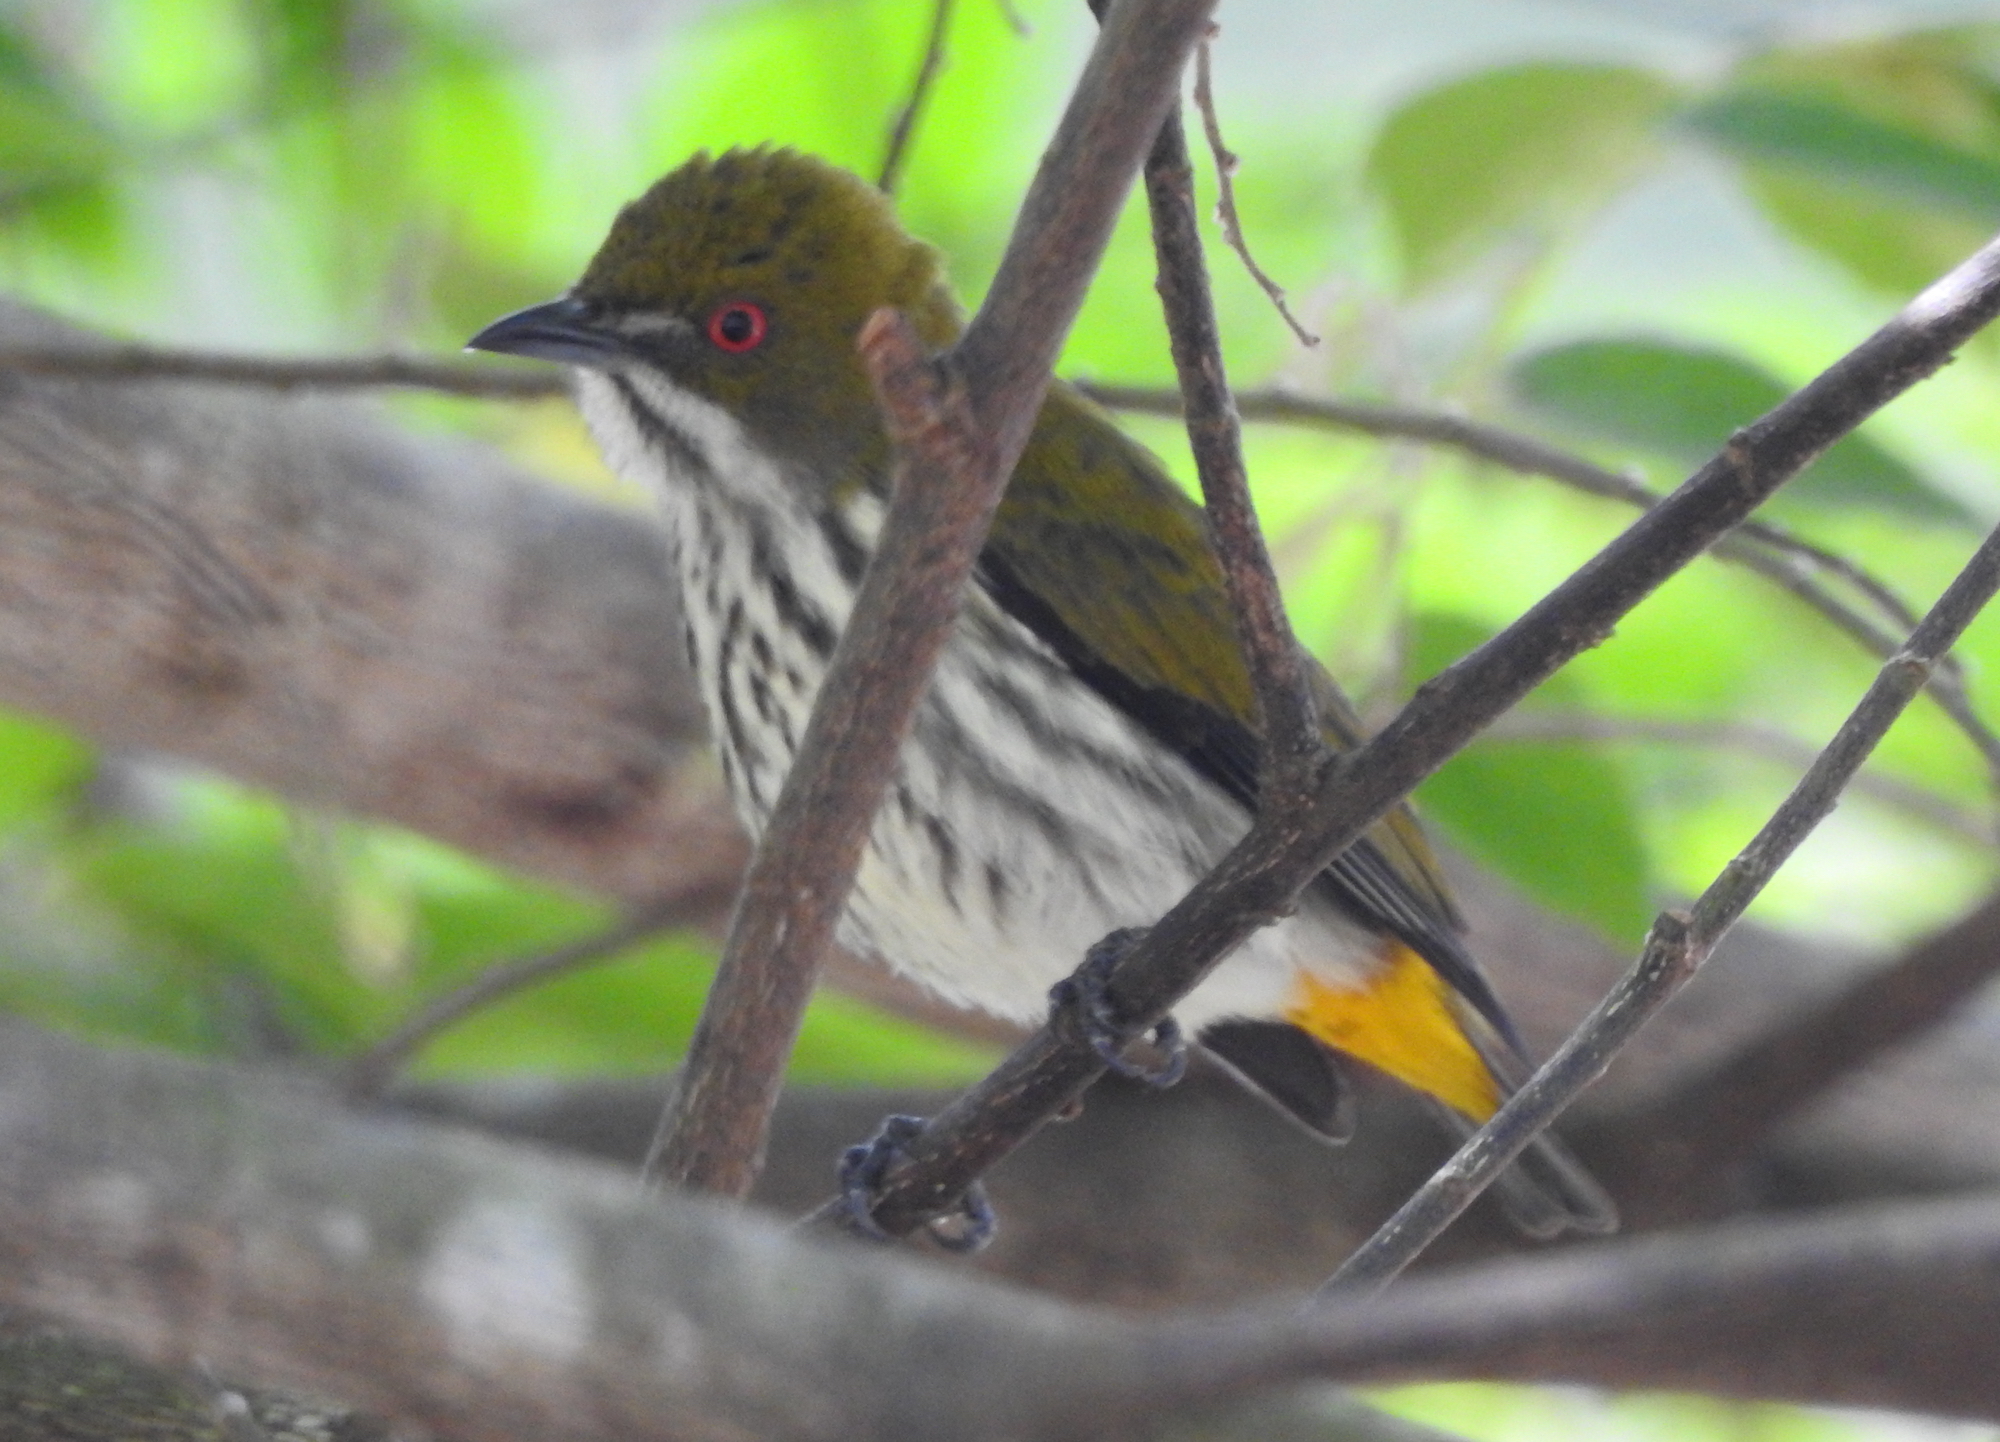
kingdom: Animalia
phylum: Chordata
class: Aves
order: Passeriformes
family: Dicaeidae
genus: Dicaeum
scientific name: Dicaeum chrysorrheum
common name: Yellow-vented flowerpecker
